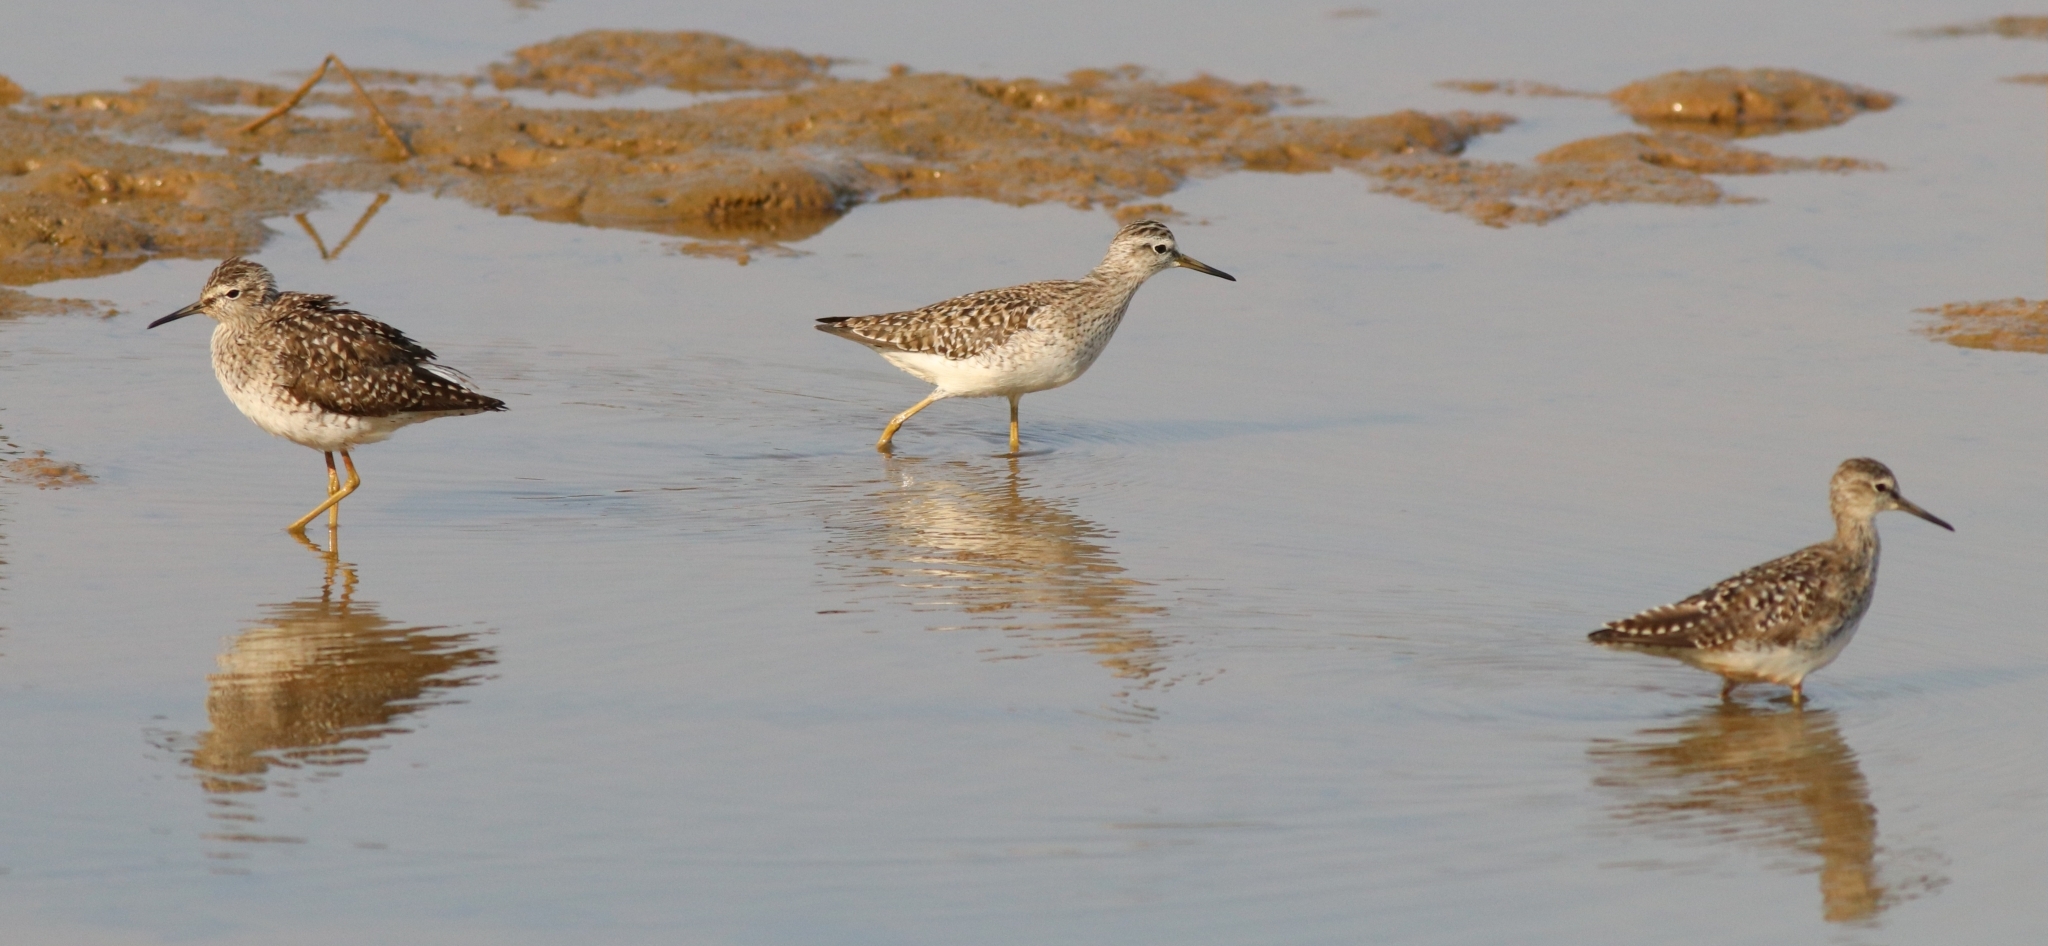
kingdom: Animalia
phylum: Chordata
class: Aves
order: Charadriiformes
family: Scolopacidae
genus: Tringa
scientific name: Tringa glareola
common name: Wood sandpiper
